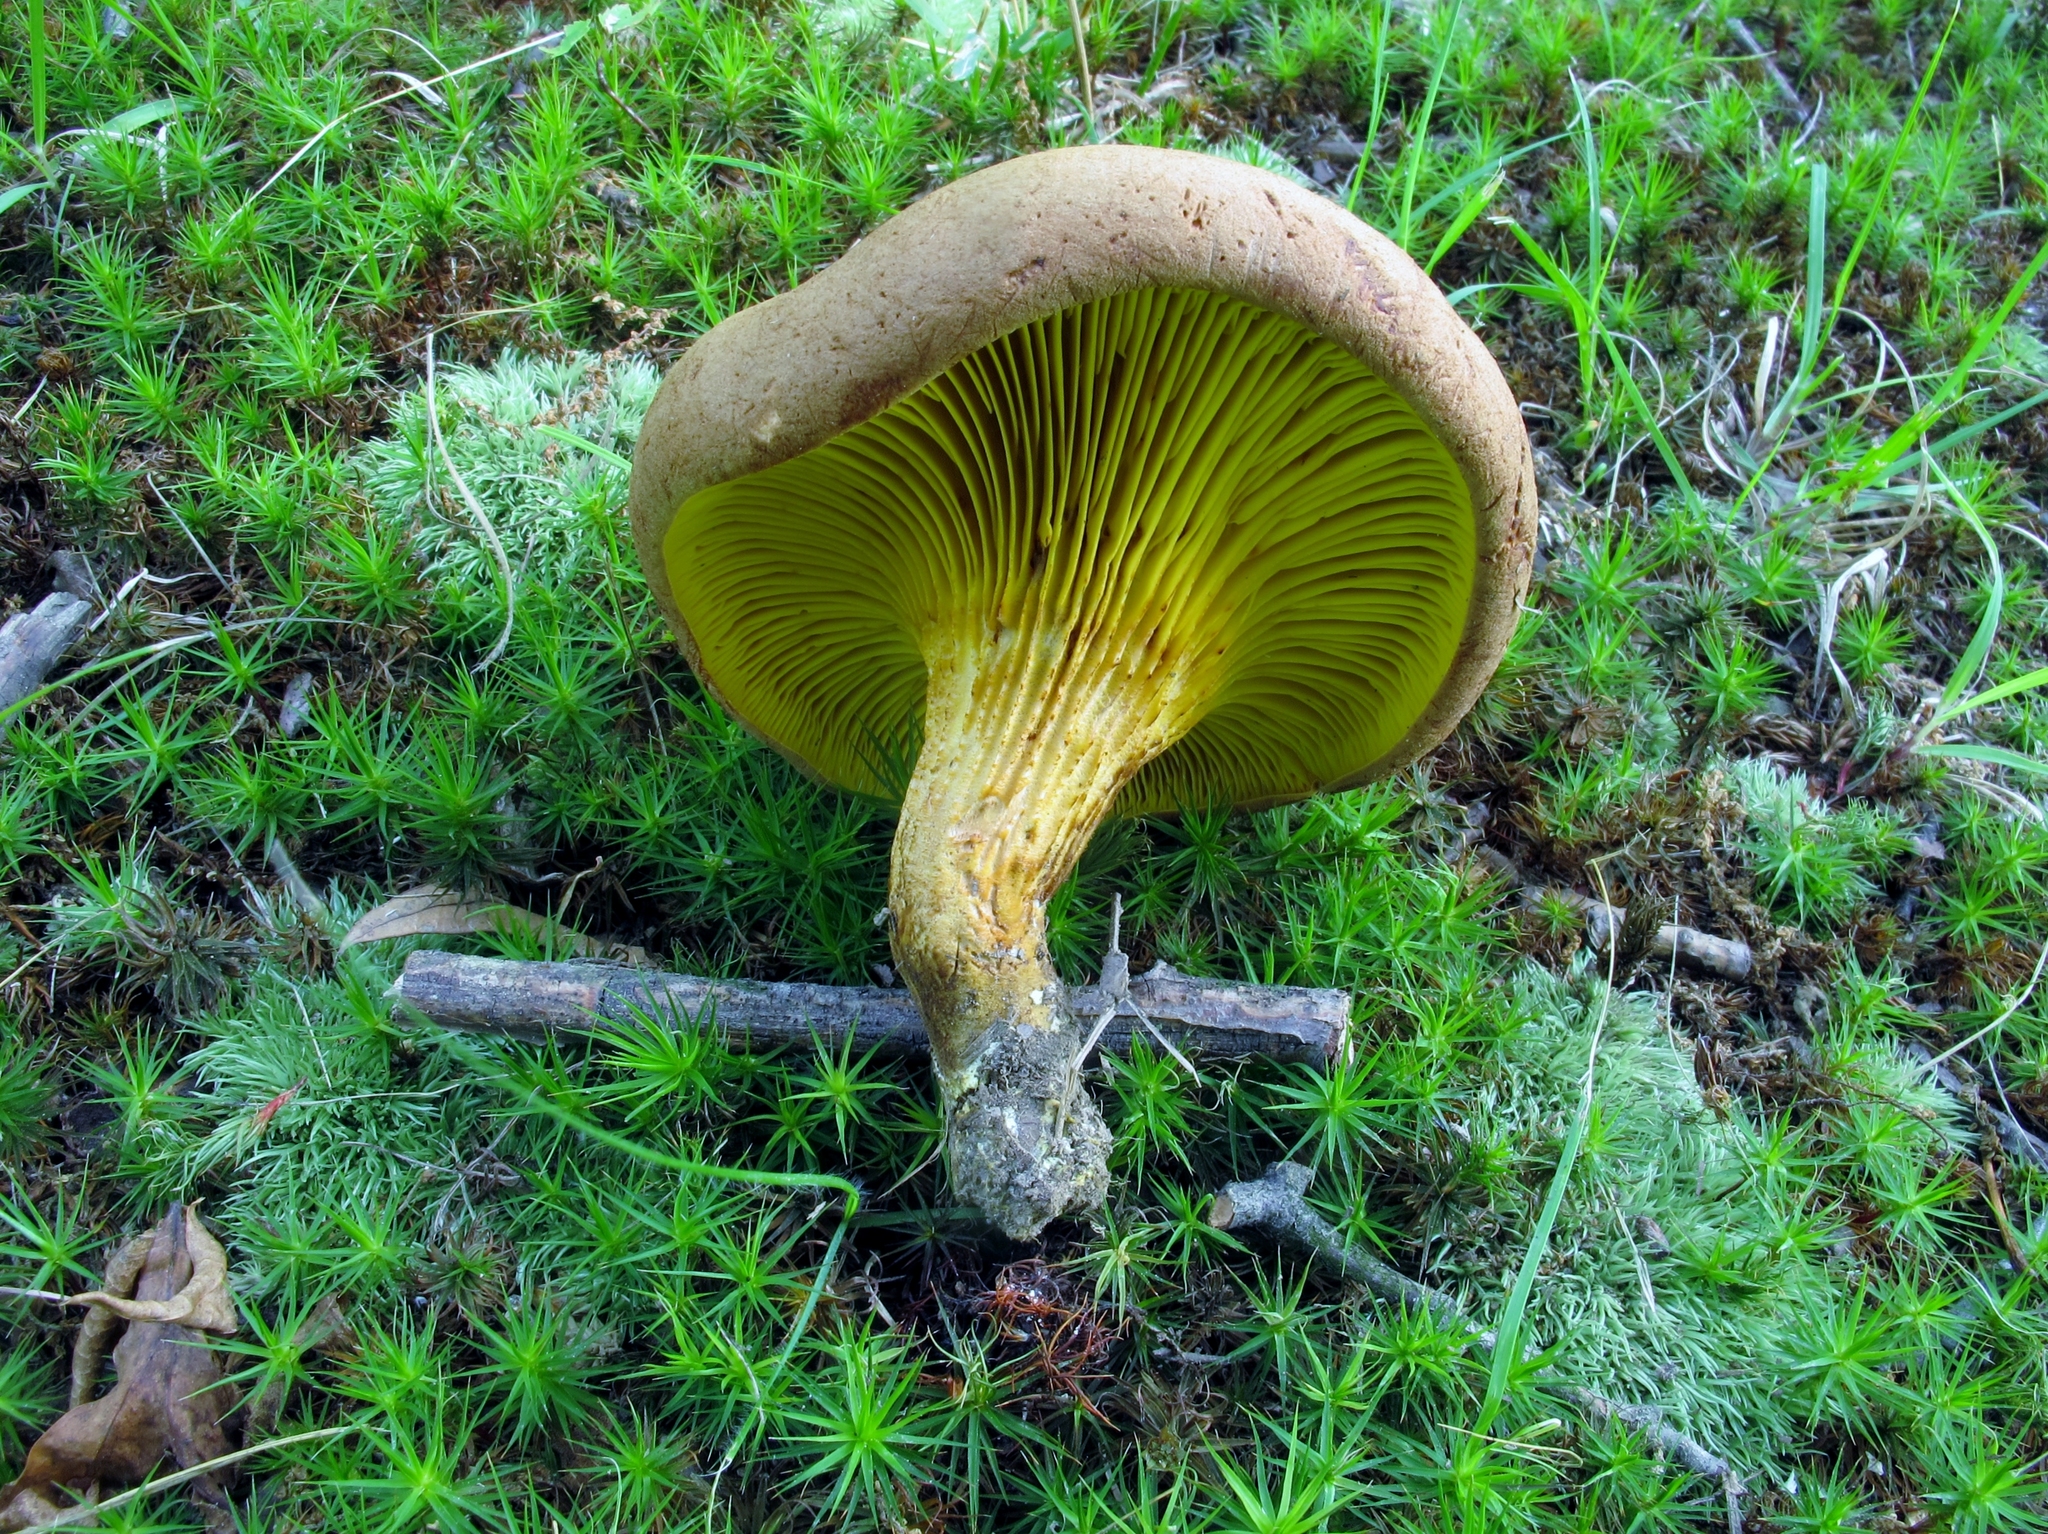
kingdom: Fungi
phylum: Basidiomycota
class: Agaricomycetes
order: Boletales
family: Boletaceae
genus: Phylloporus
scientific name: Phylloporus rhodoxanthus
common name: Golden gilled bolete
